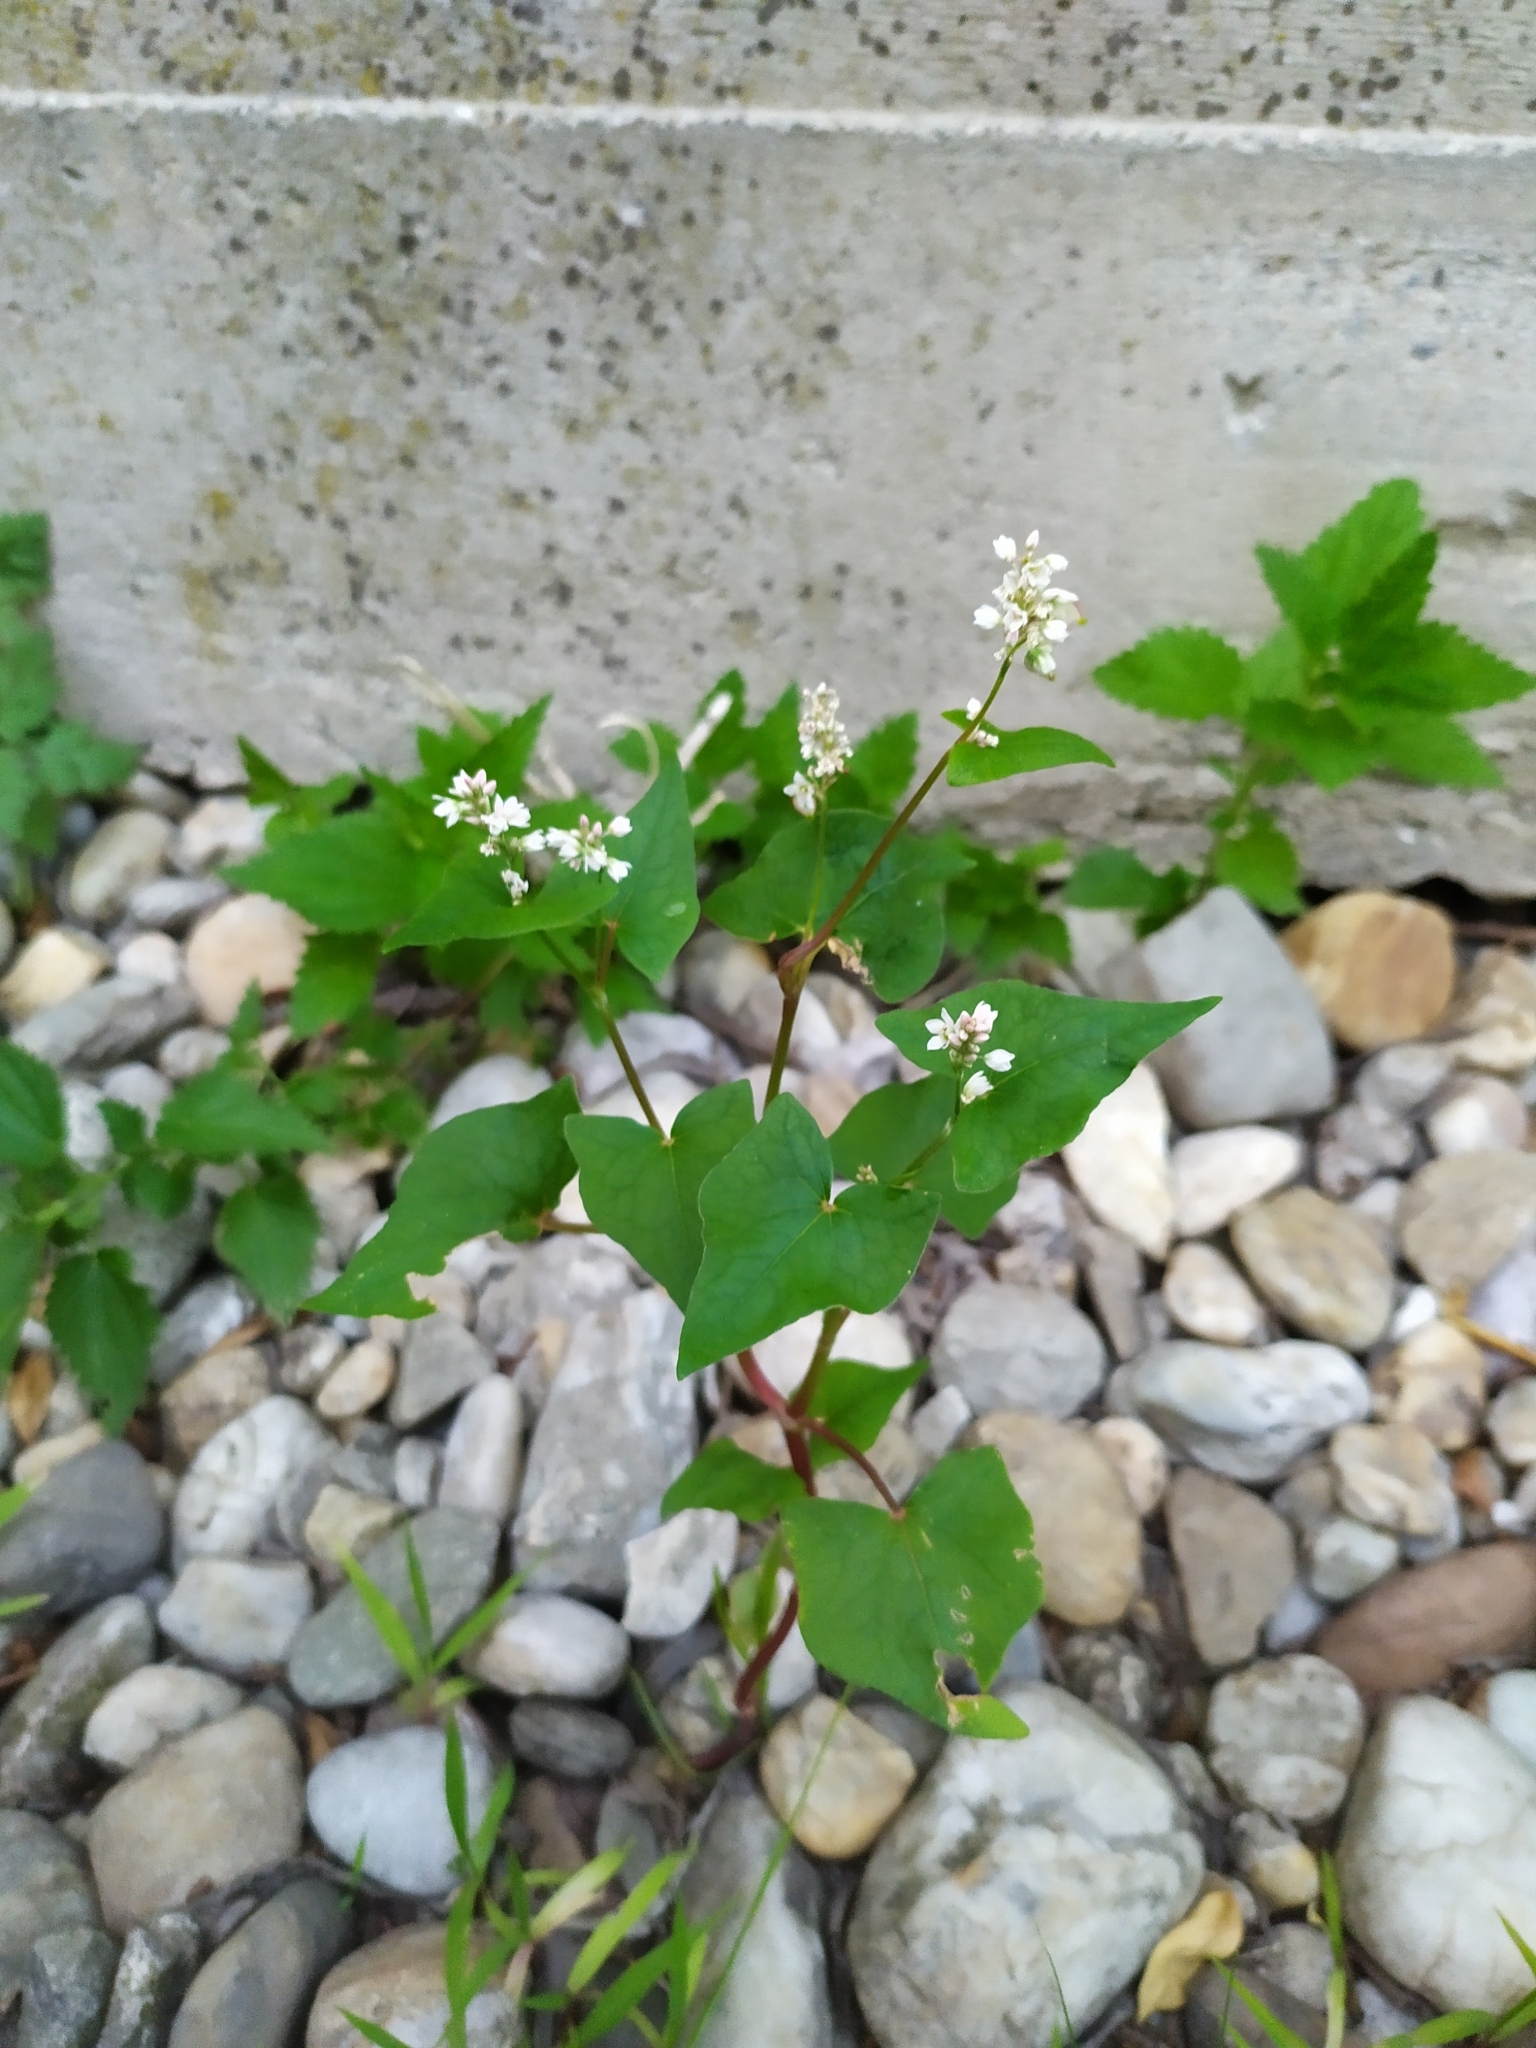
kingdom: Plantae
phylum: Tracheophyta
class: Magnoliopsida
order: Caryophyllales
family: Polygonaceae
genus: Fagopyrum
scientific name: Fagopyrum esculentum
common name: Buckwheat
